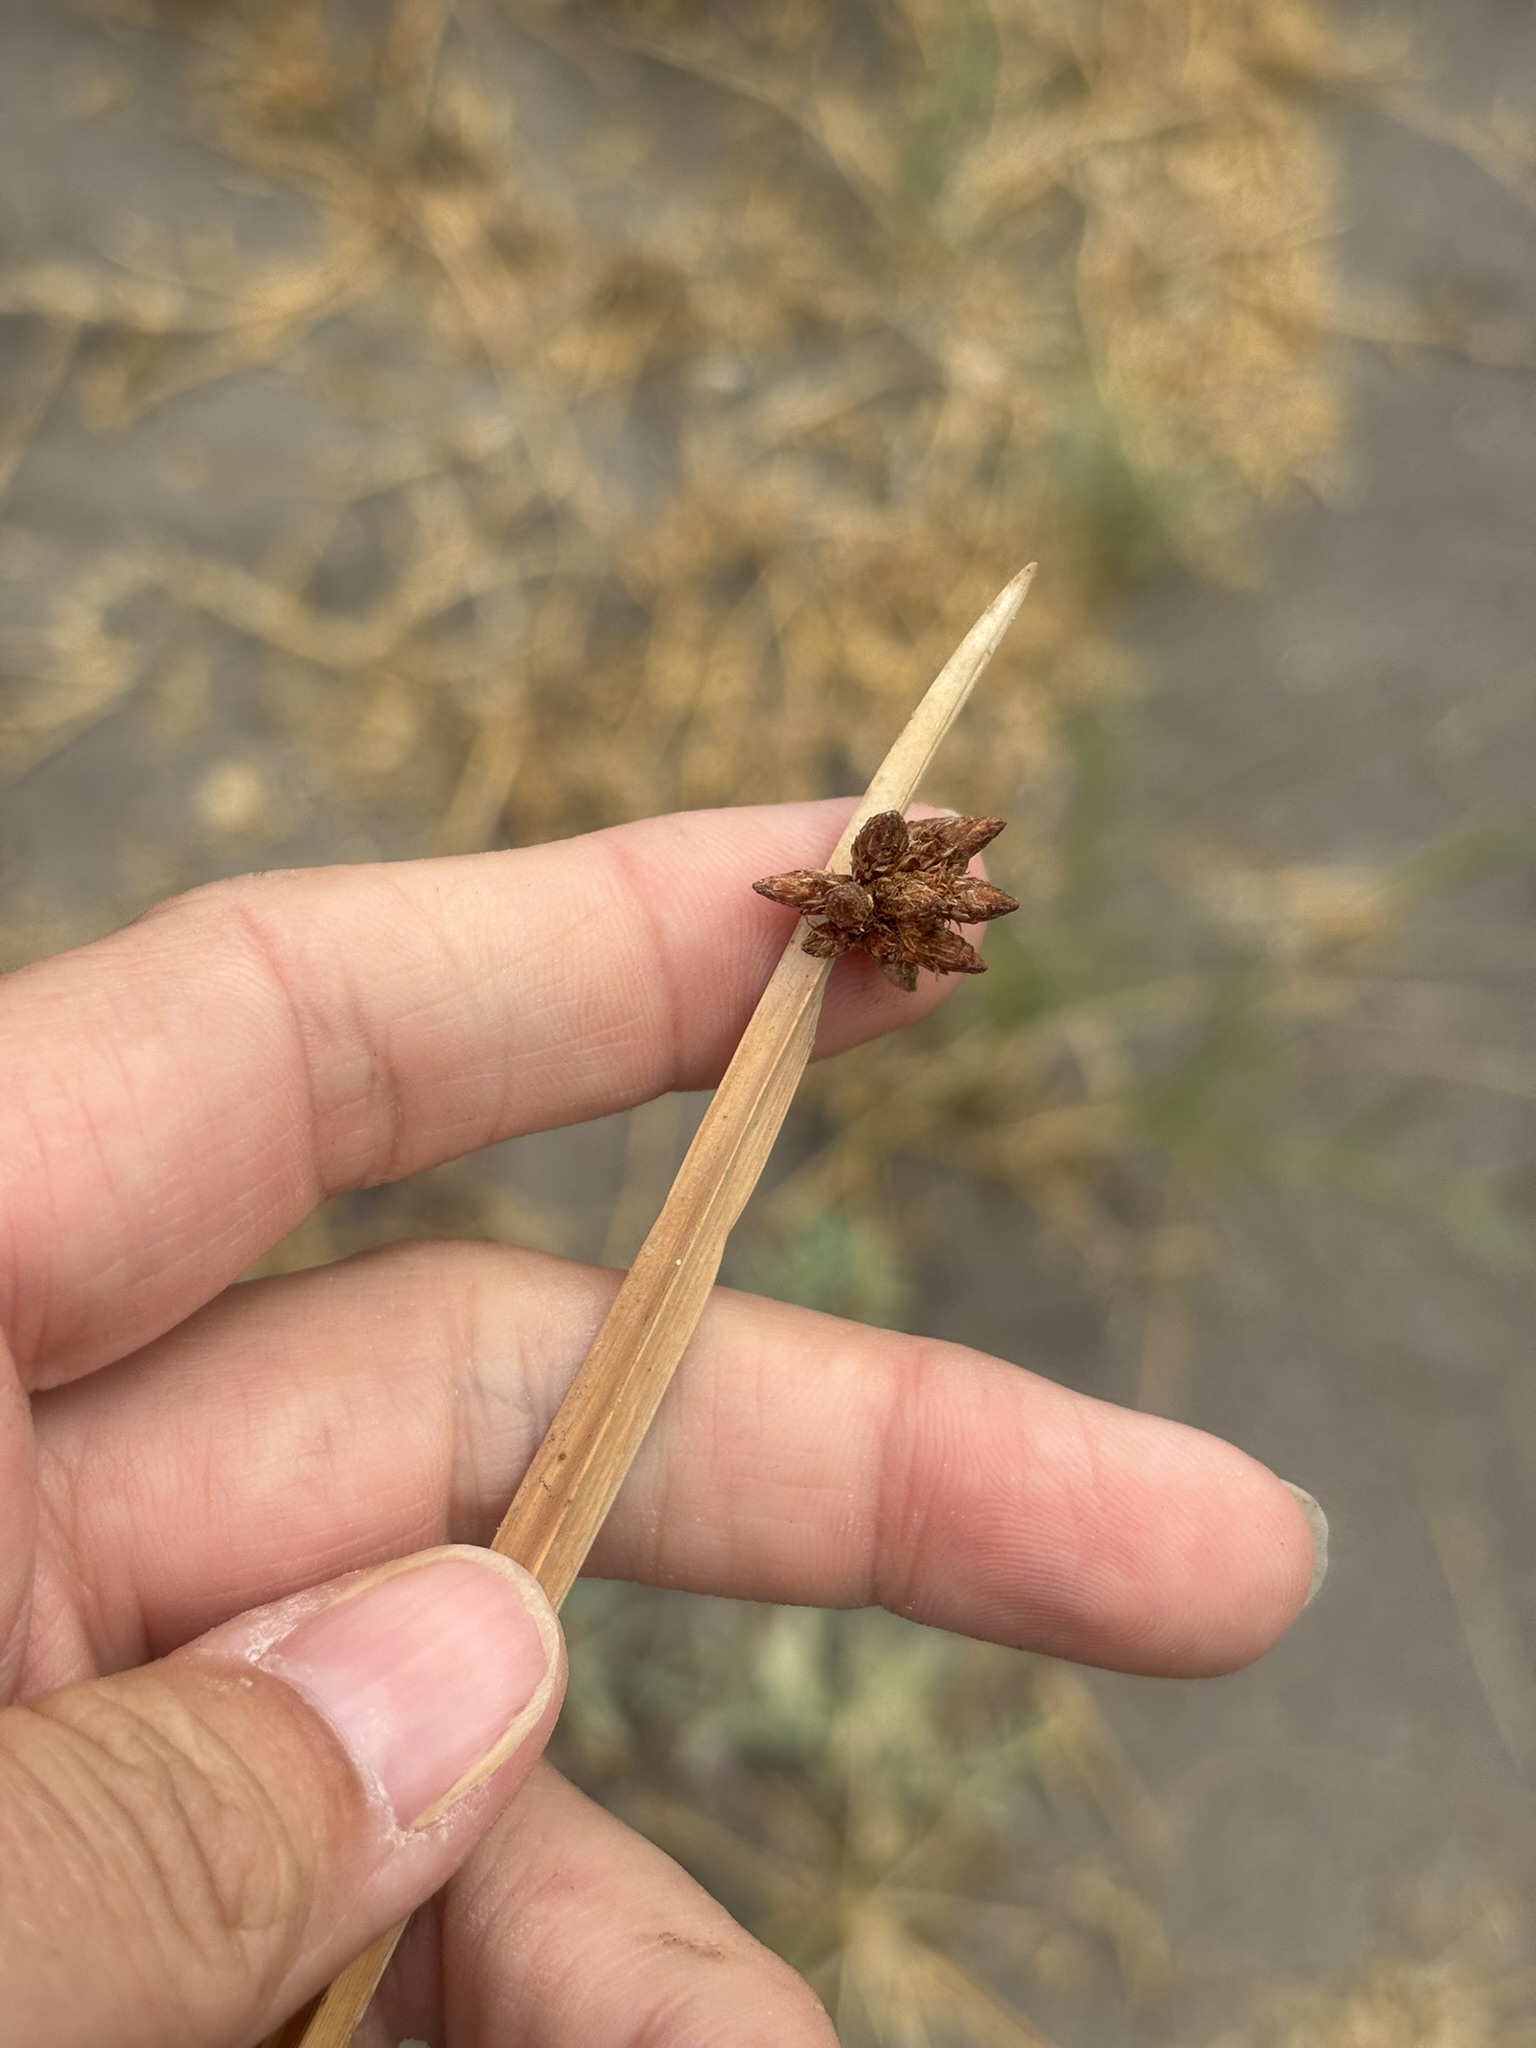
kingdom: Plantae
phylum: Tracheophyta
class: Liliopsida
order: Poales
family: Cyperaceae
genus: Schoenoplectus
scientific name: Schoenoplectus americanus
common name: American three-square bulrush
